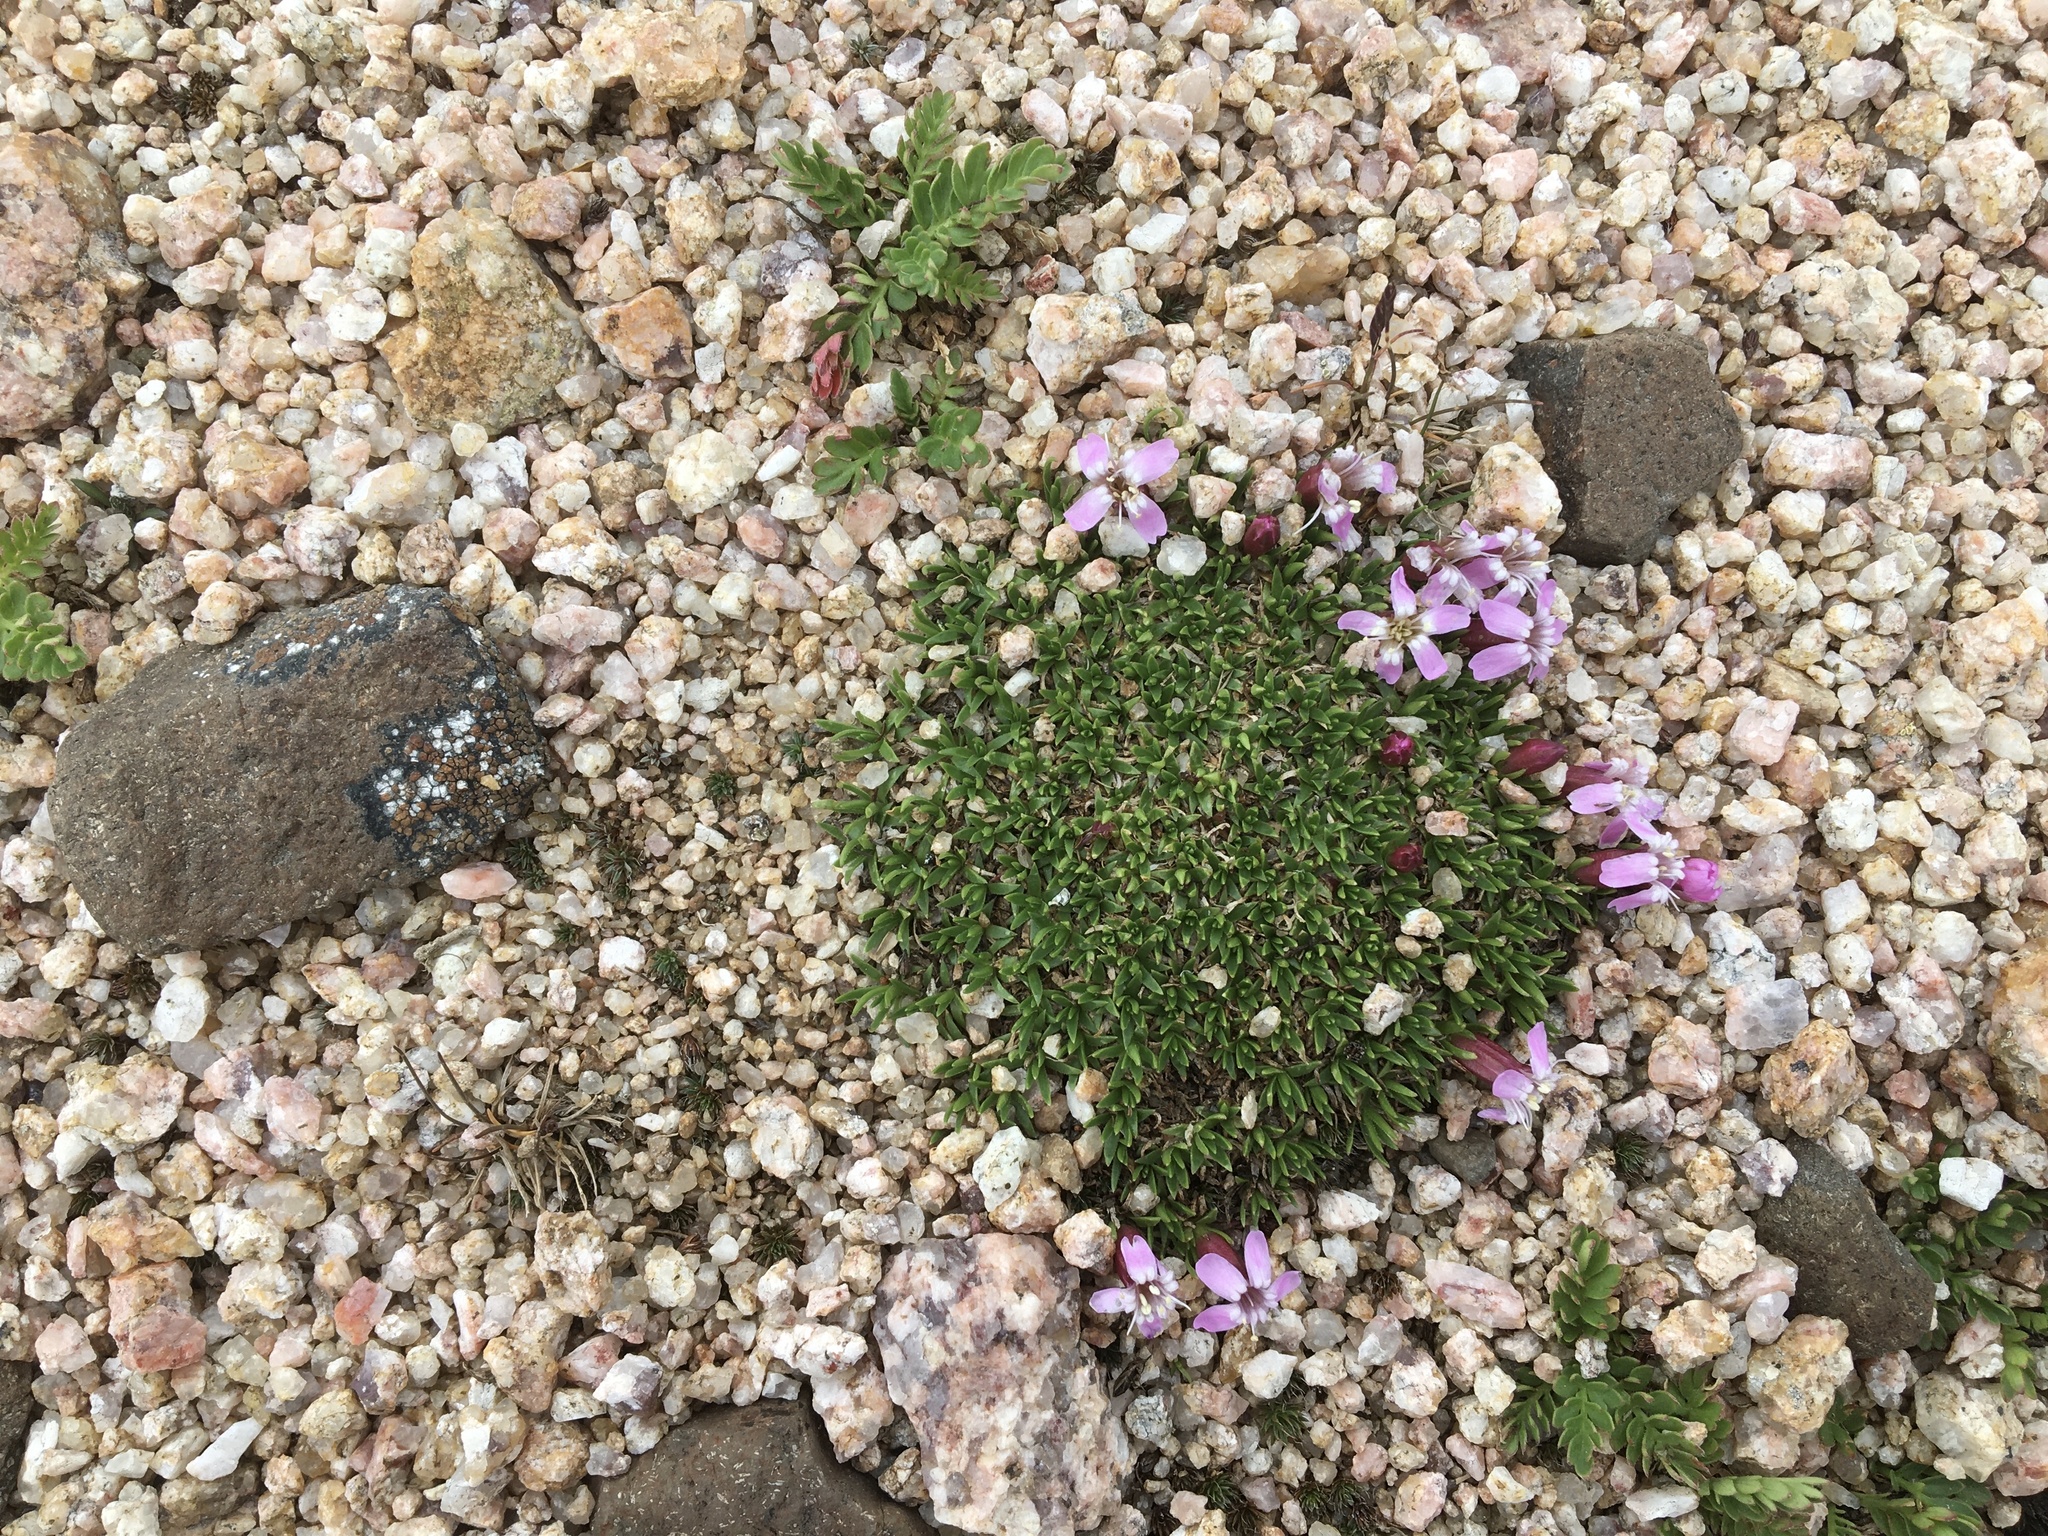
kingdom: Plantae
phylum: Tracheophyta
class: Magnoliopsida
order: Caryophyllales
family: Caryophyllaceae
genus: Silene
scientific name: Silene acaulis
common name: Moss campion
